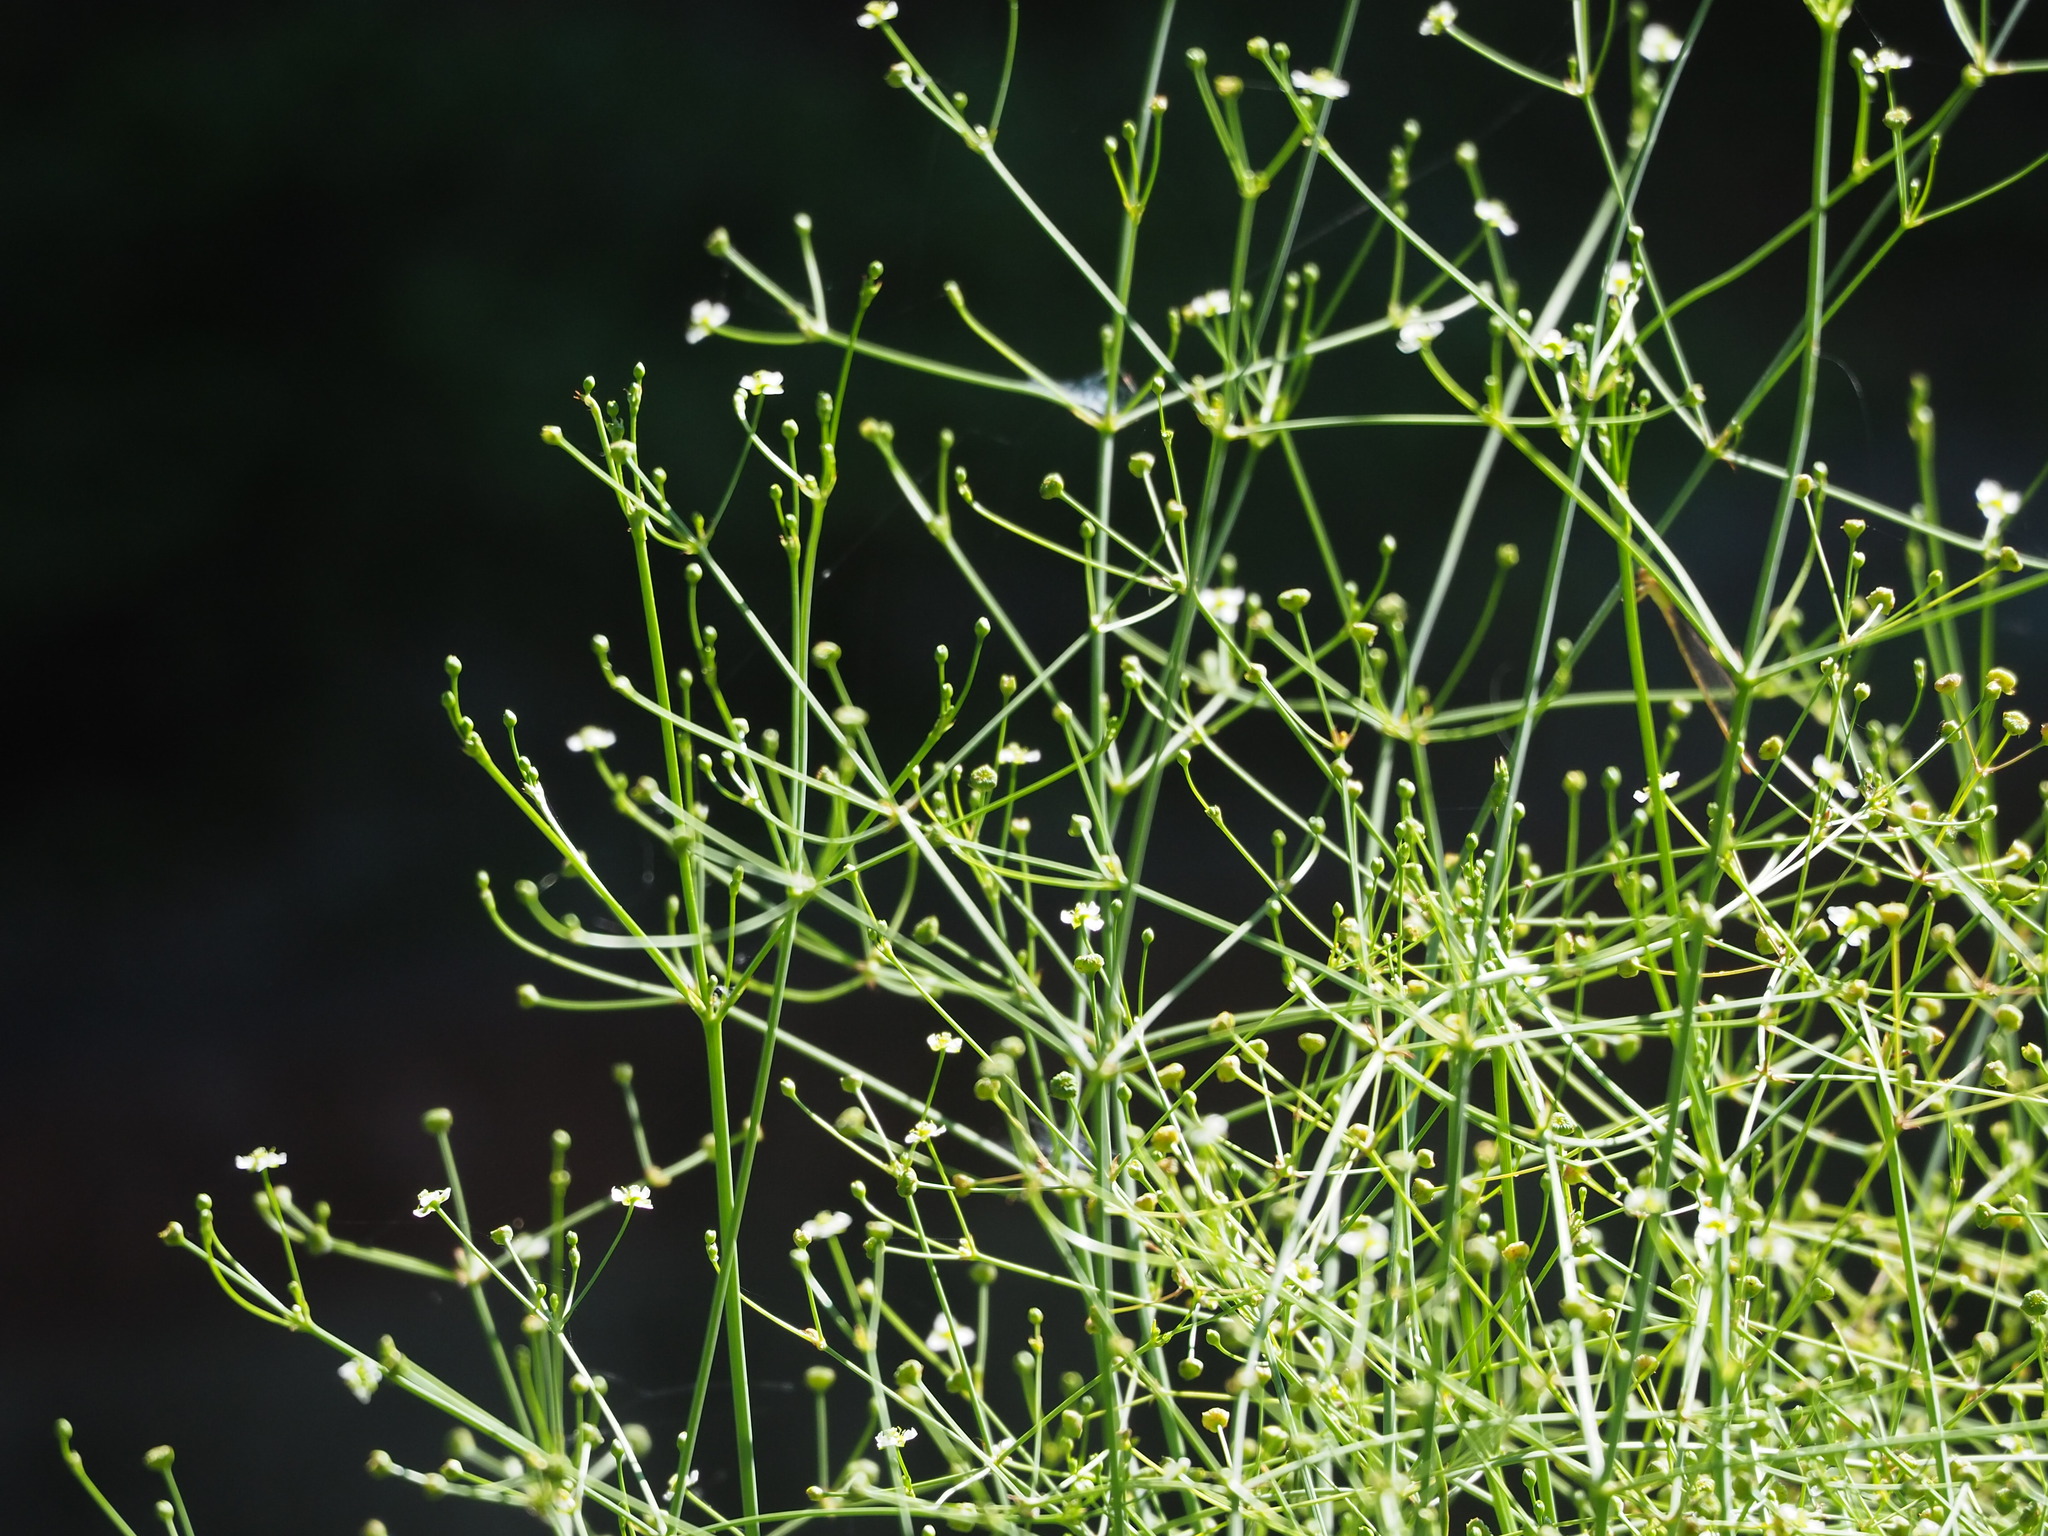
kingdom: Plantae
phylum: Tracheophyta
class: Liliopsida
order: Alismatales
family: Alismataceae
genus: Alisma
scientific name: Alisma canaliculatum
